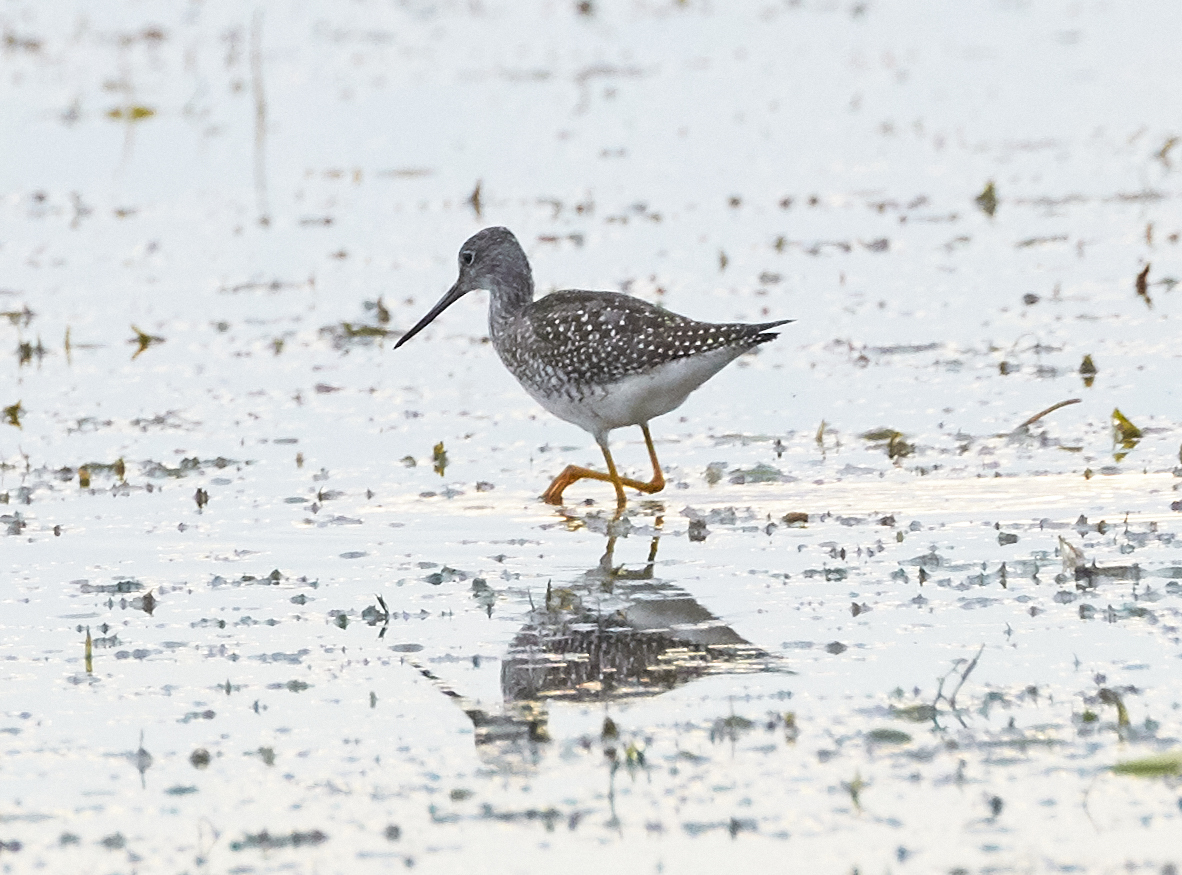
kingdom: Animalia
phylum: Chordata
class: Aves
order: Charadriiformes
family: Scolopacidae
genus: Tringa
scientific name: Tringa melanoleuca
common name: Greater yellowlegs
